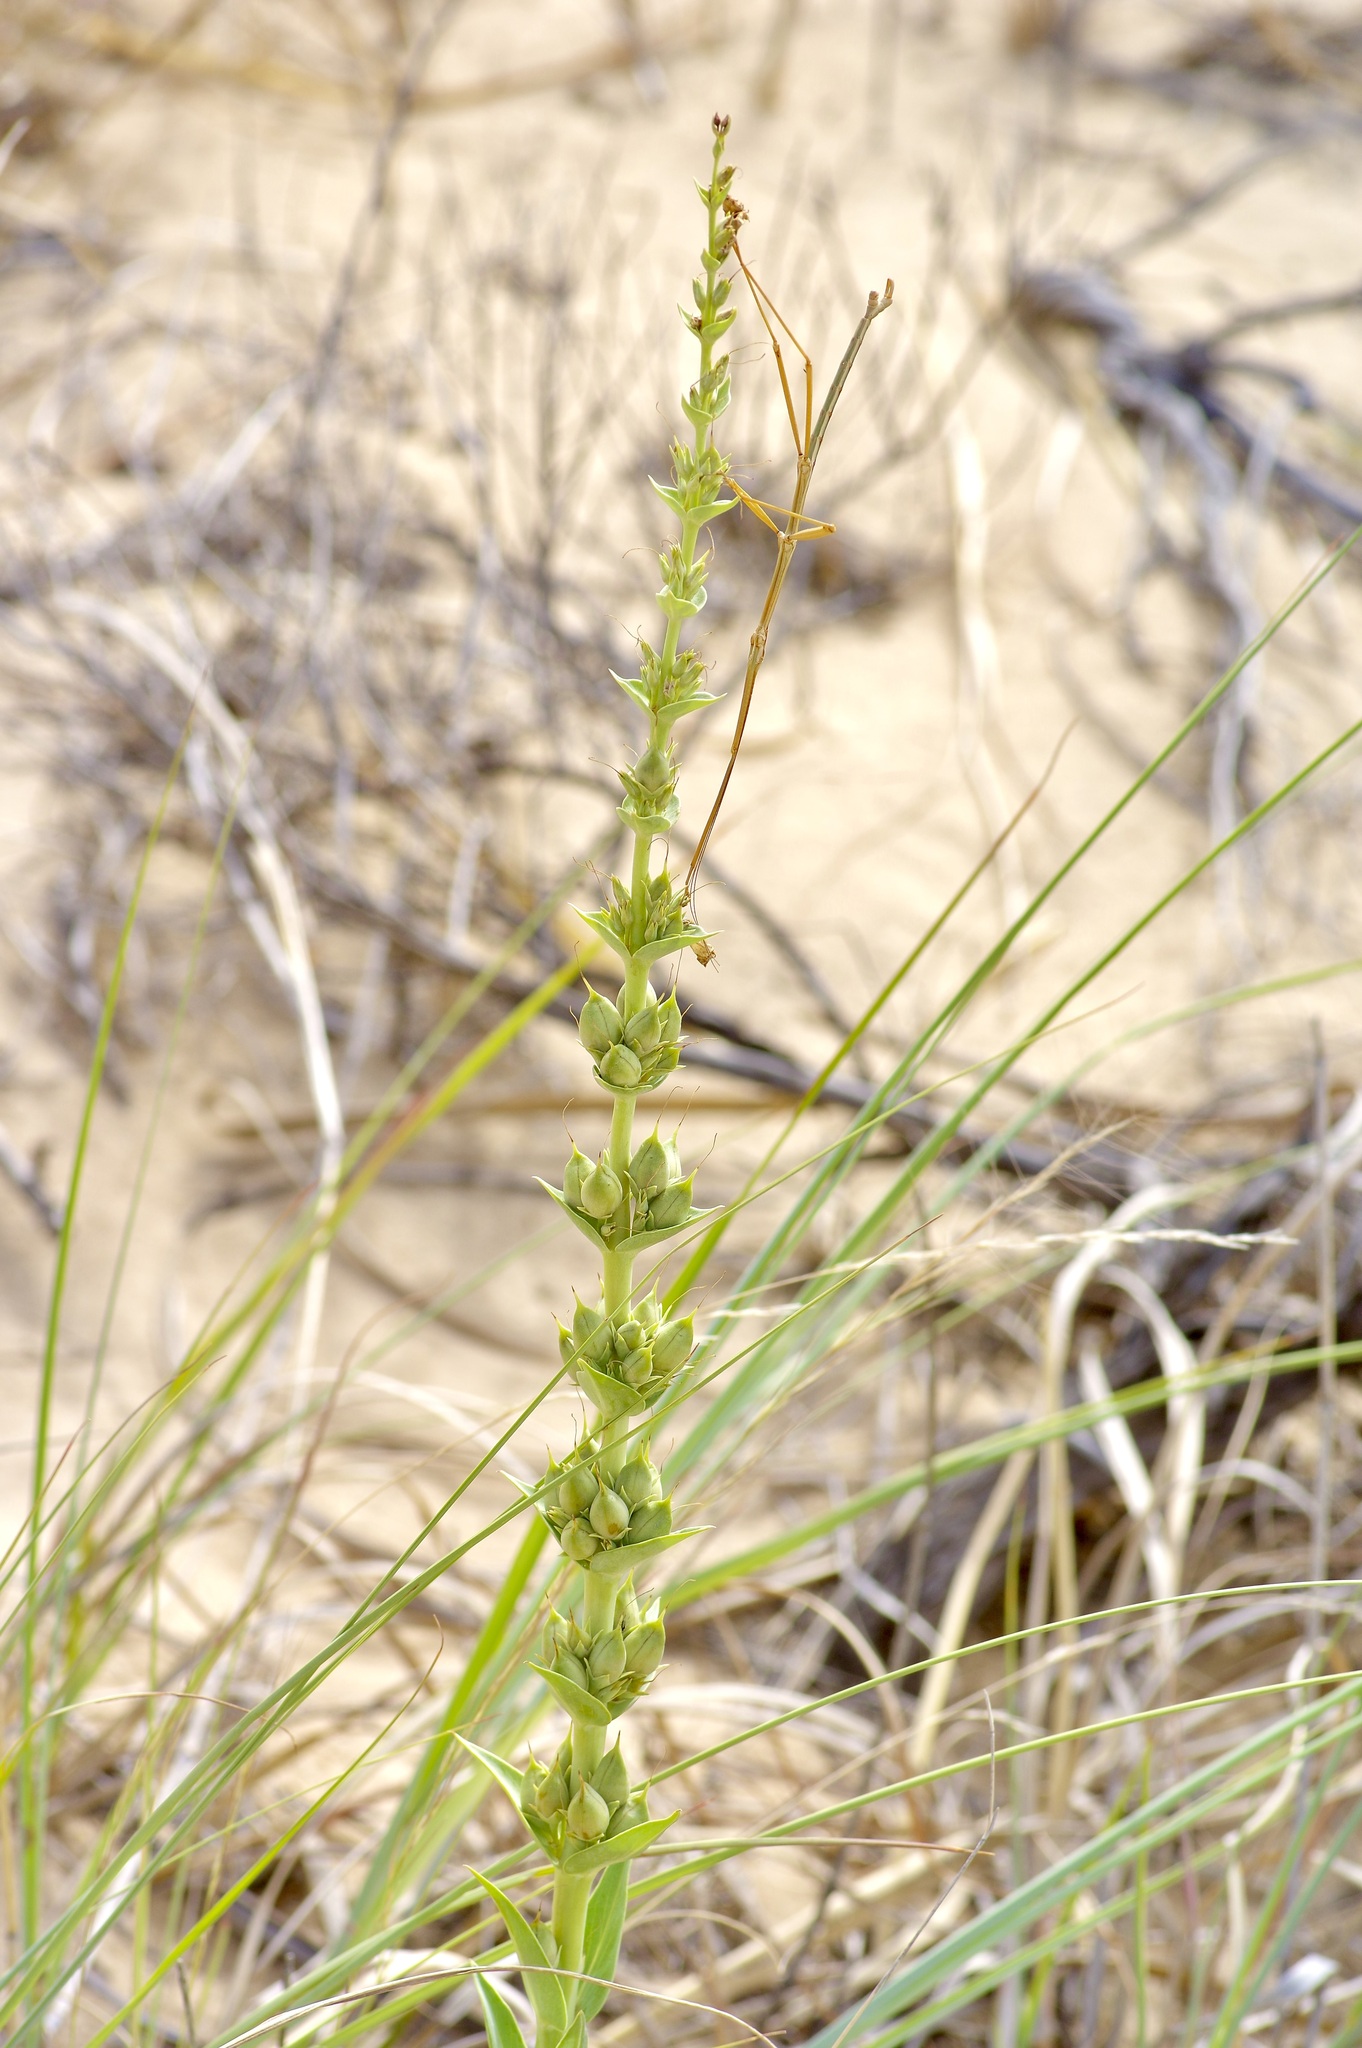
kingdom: Plantae
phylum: Tracheophyta
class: Magnoliopsida
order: Lamiales
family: Plantaginaceae
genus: Penstemon
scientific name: Penstemon buckleyi
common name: Buckley's penstemon
